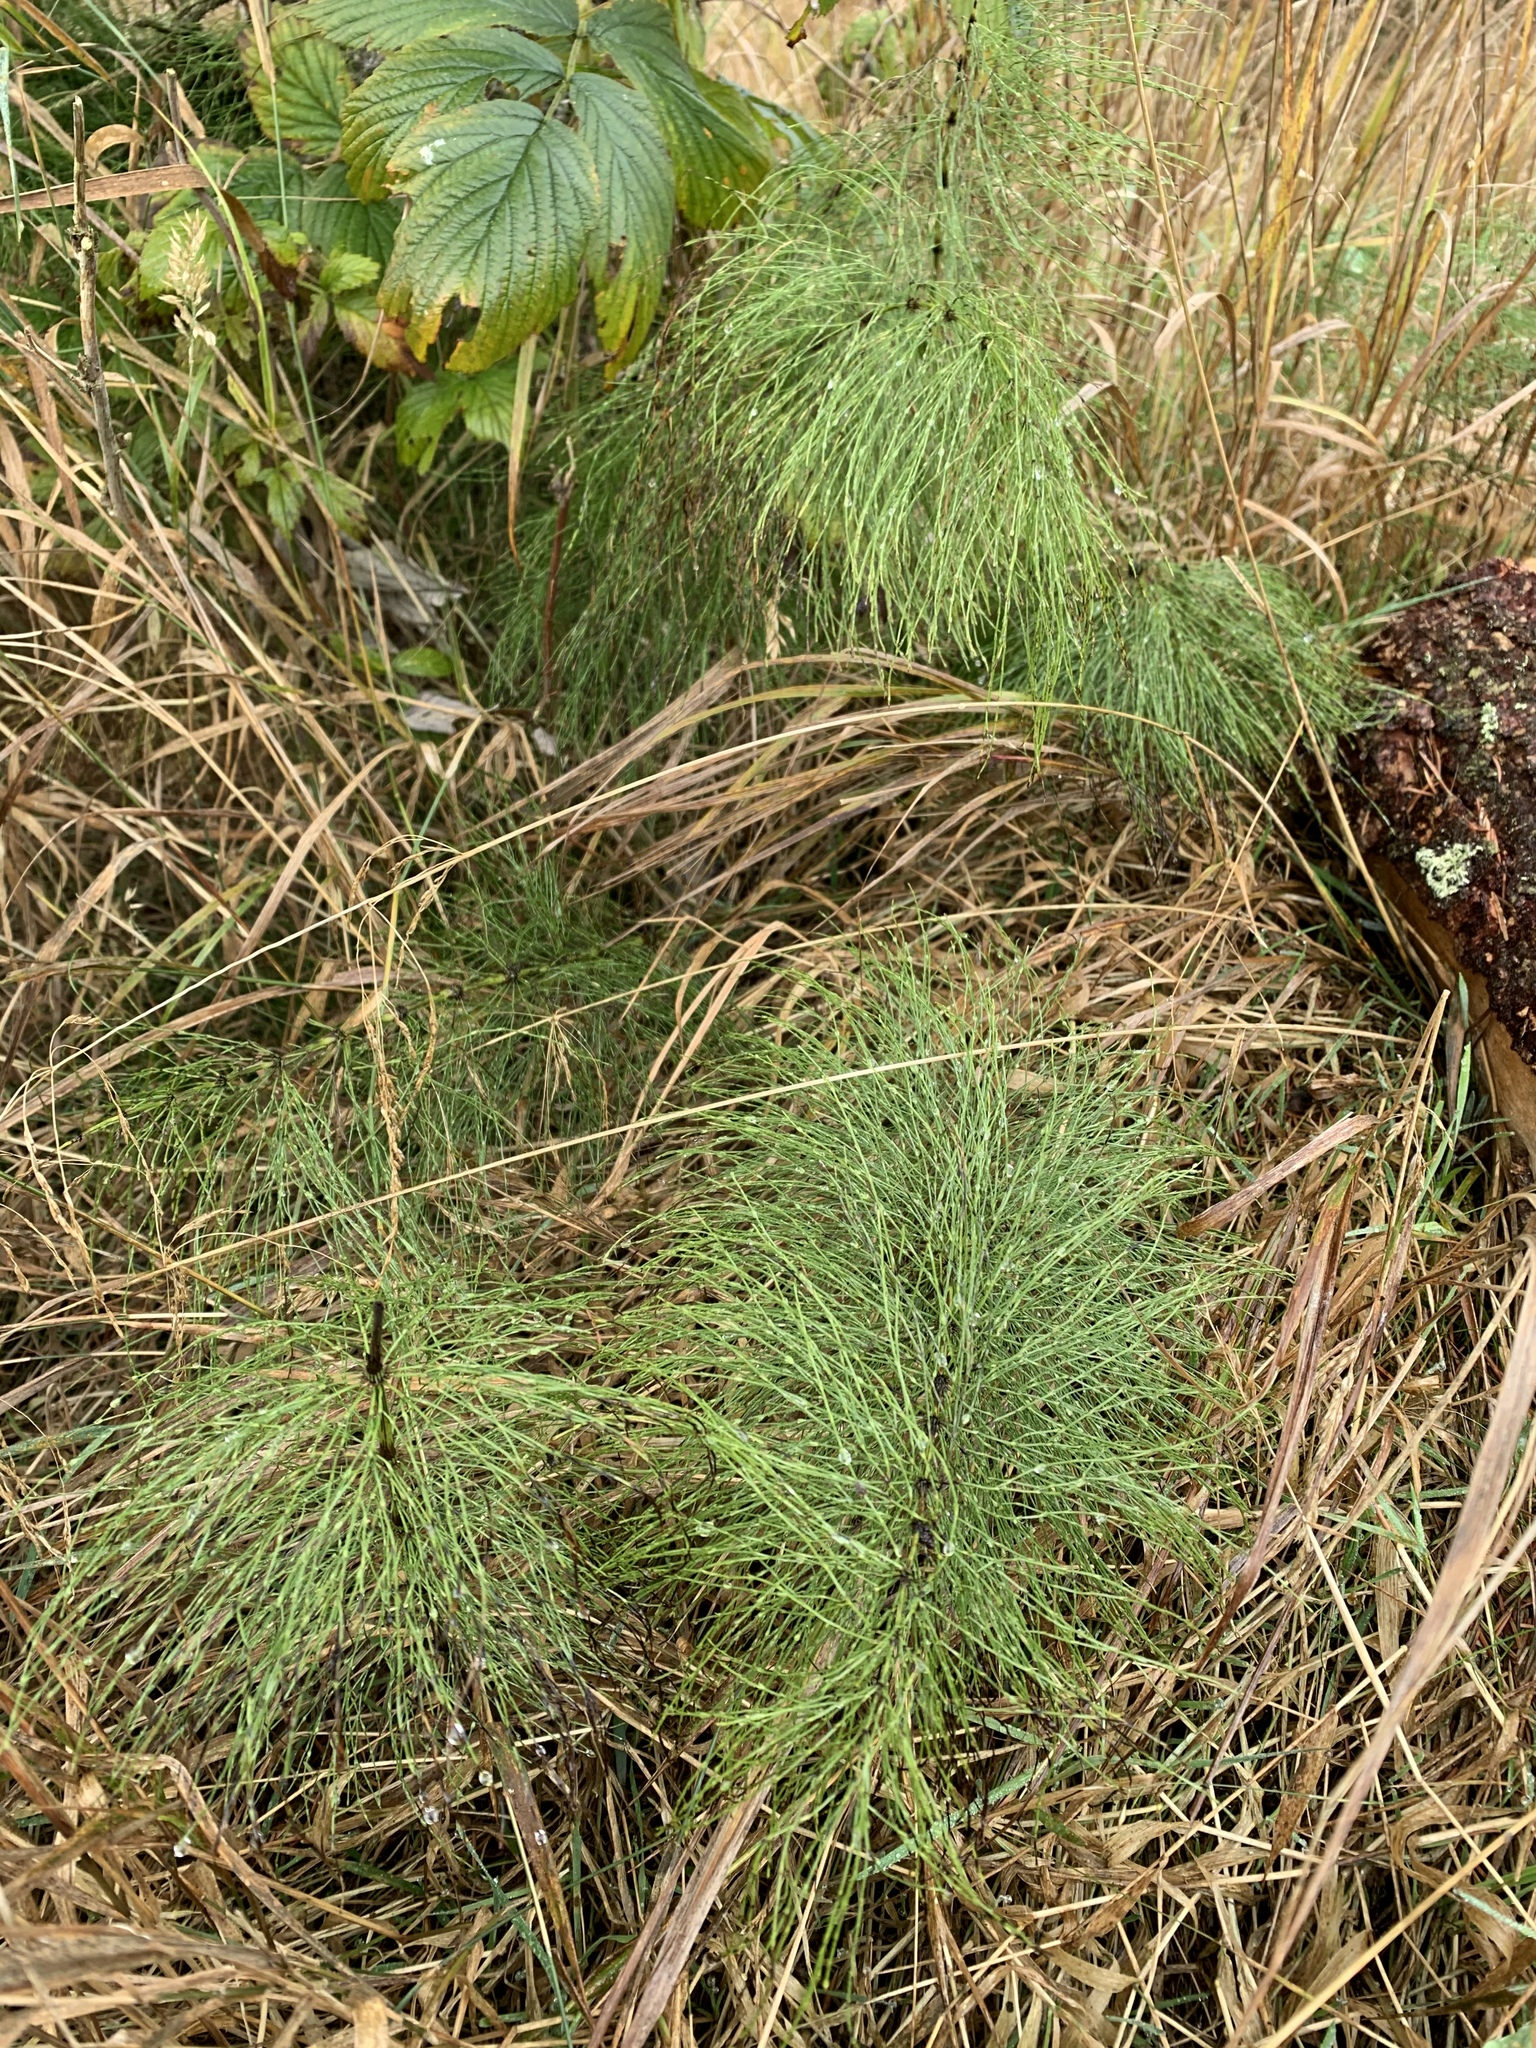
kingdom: Plantae
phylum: Tracheophyta
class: Polypodiopsida
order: Equisetales
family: Equisetaceae
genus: Equisetum
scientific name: Equisetum sylvaticum
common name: Wood horsetail
